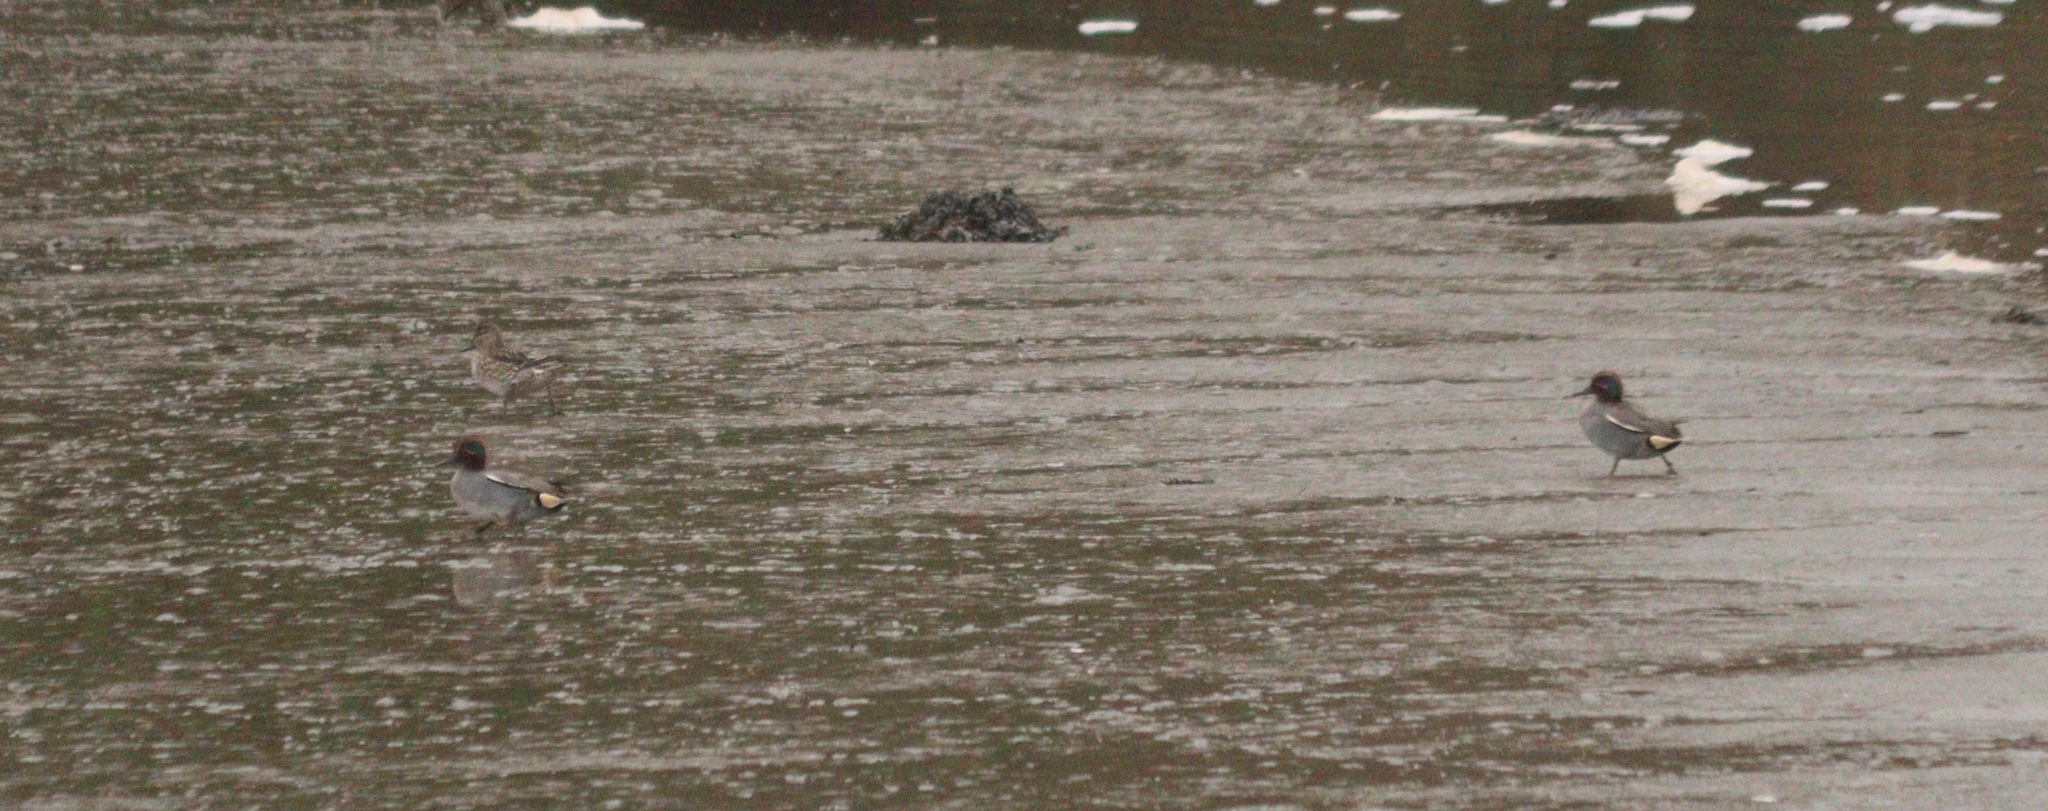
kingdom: Animalia
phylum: Chordata
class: Aves
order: Anseriformes
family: Anatidae
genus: Anas
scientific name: Anas crecca
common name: Eurasian teal
